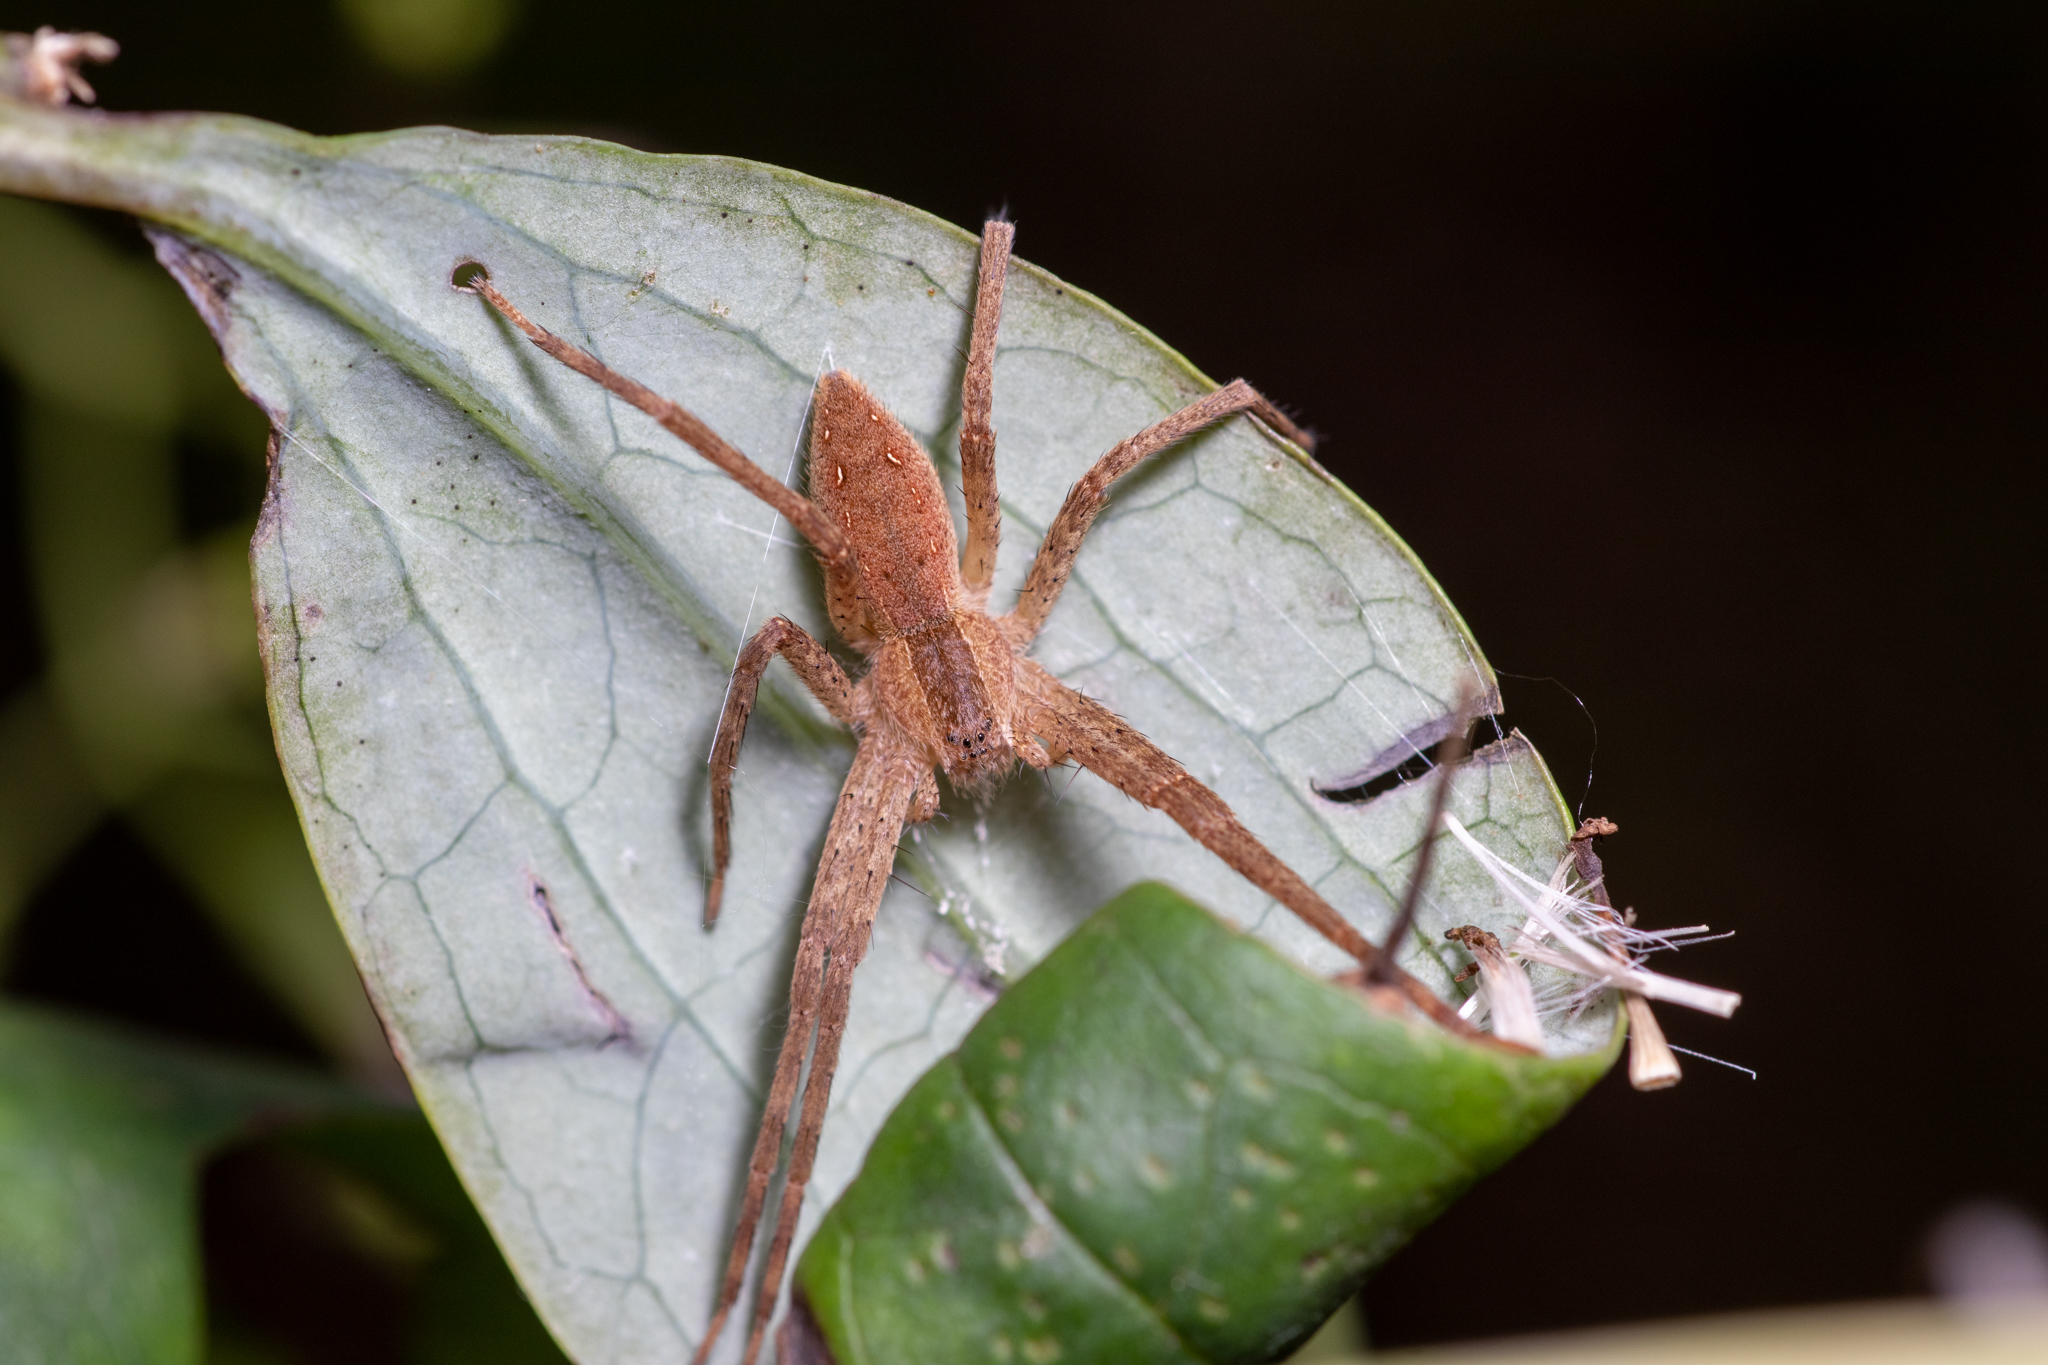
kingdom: Animalia
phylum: Arthropoda
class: Arachnida
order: Araneae
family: Pisauridae
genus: Pisaurina
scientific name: Pisaurina mira
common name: American nursery web spider
